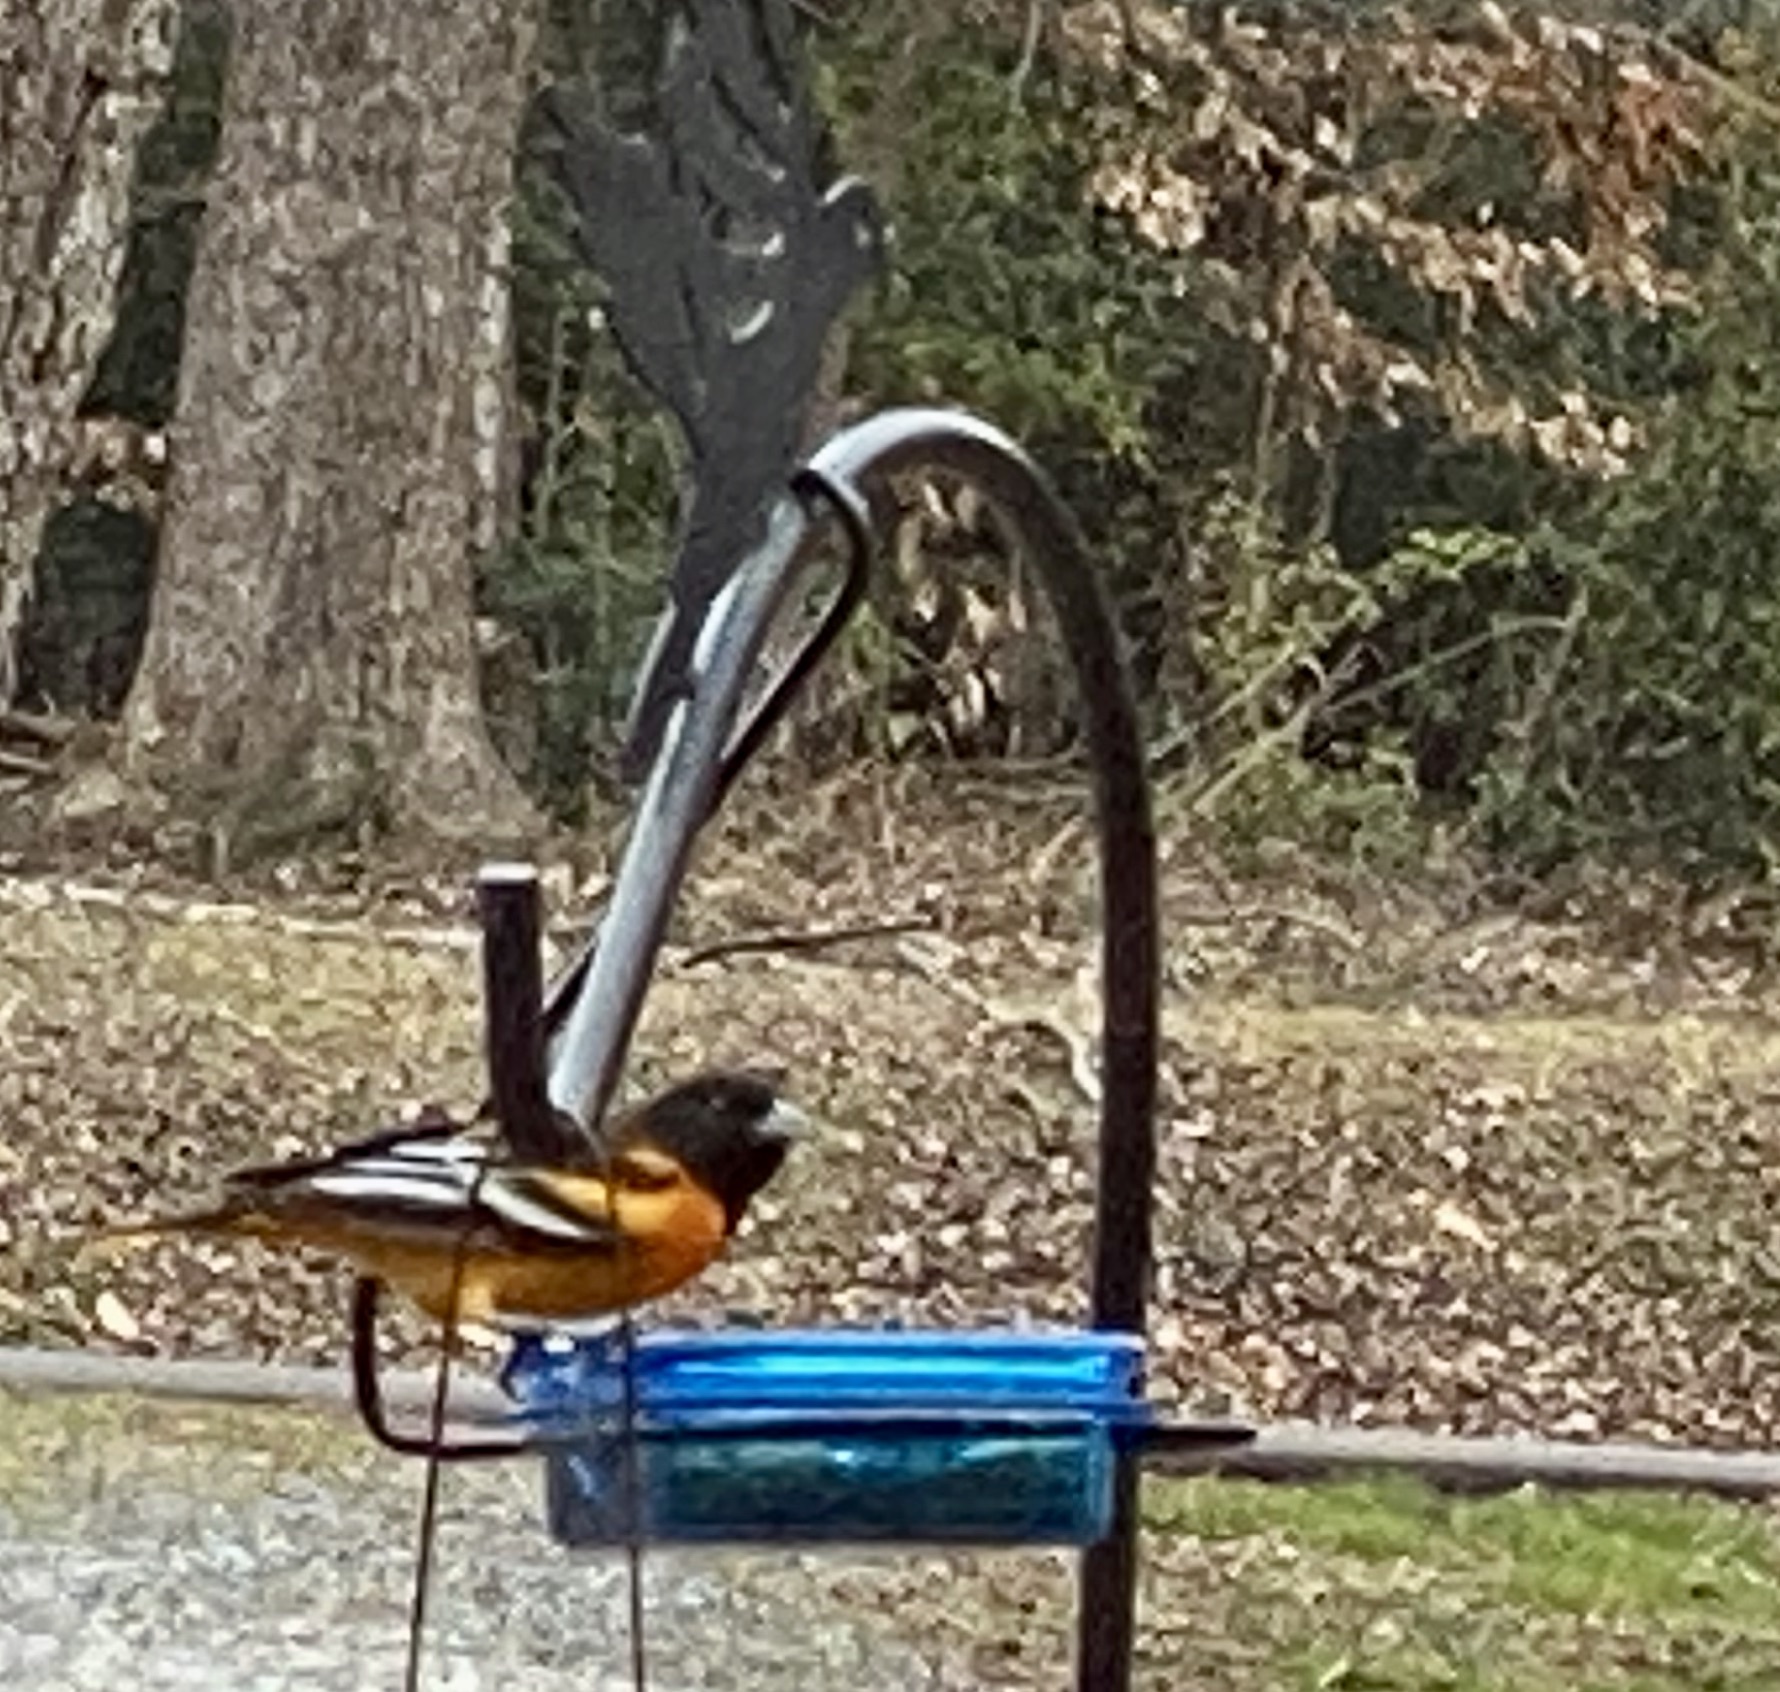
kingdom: Animalia
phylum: Chordata
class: Aves
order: Passeriformes
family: Icteridae
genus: Icterus
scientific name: Icterus galbula
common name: Baltimore oriole
